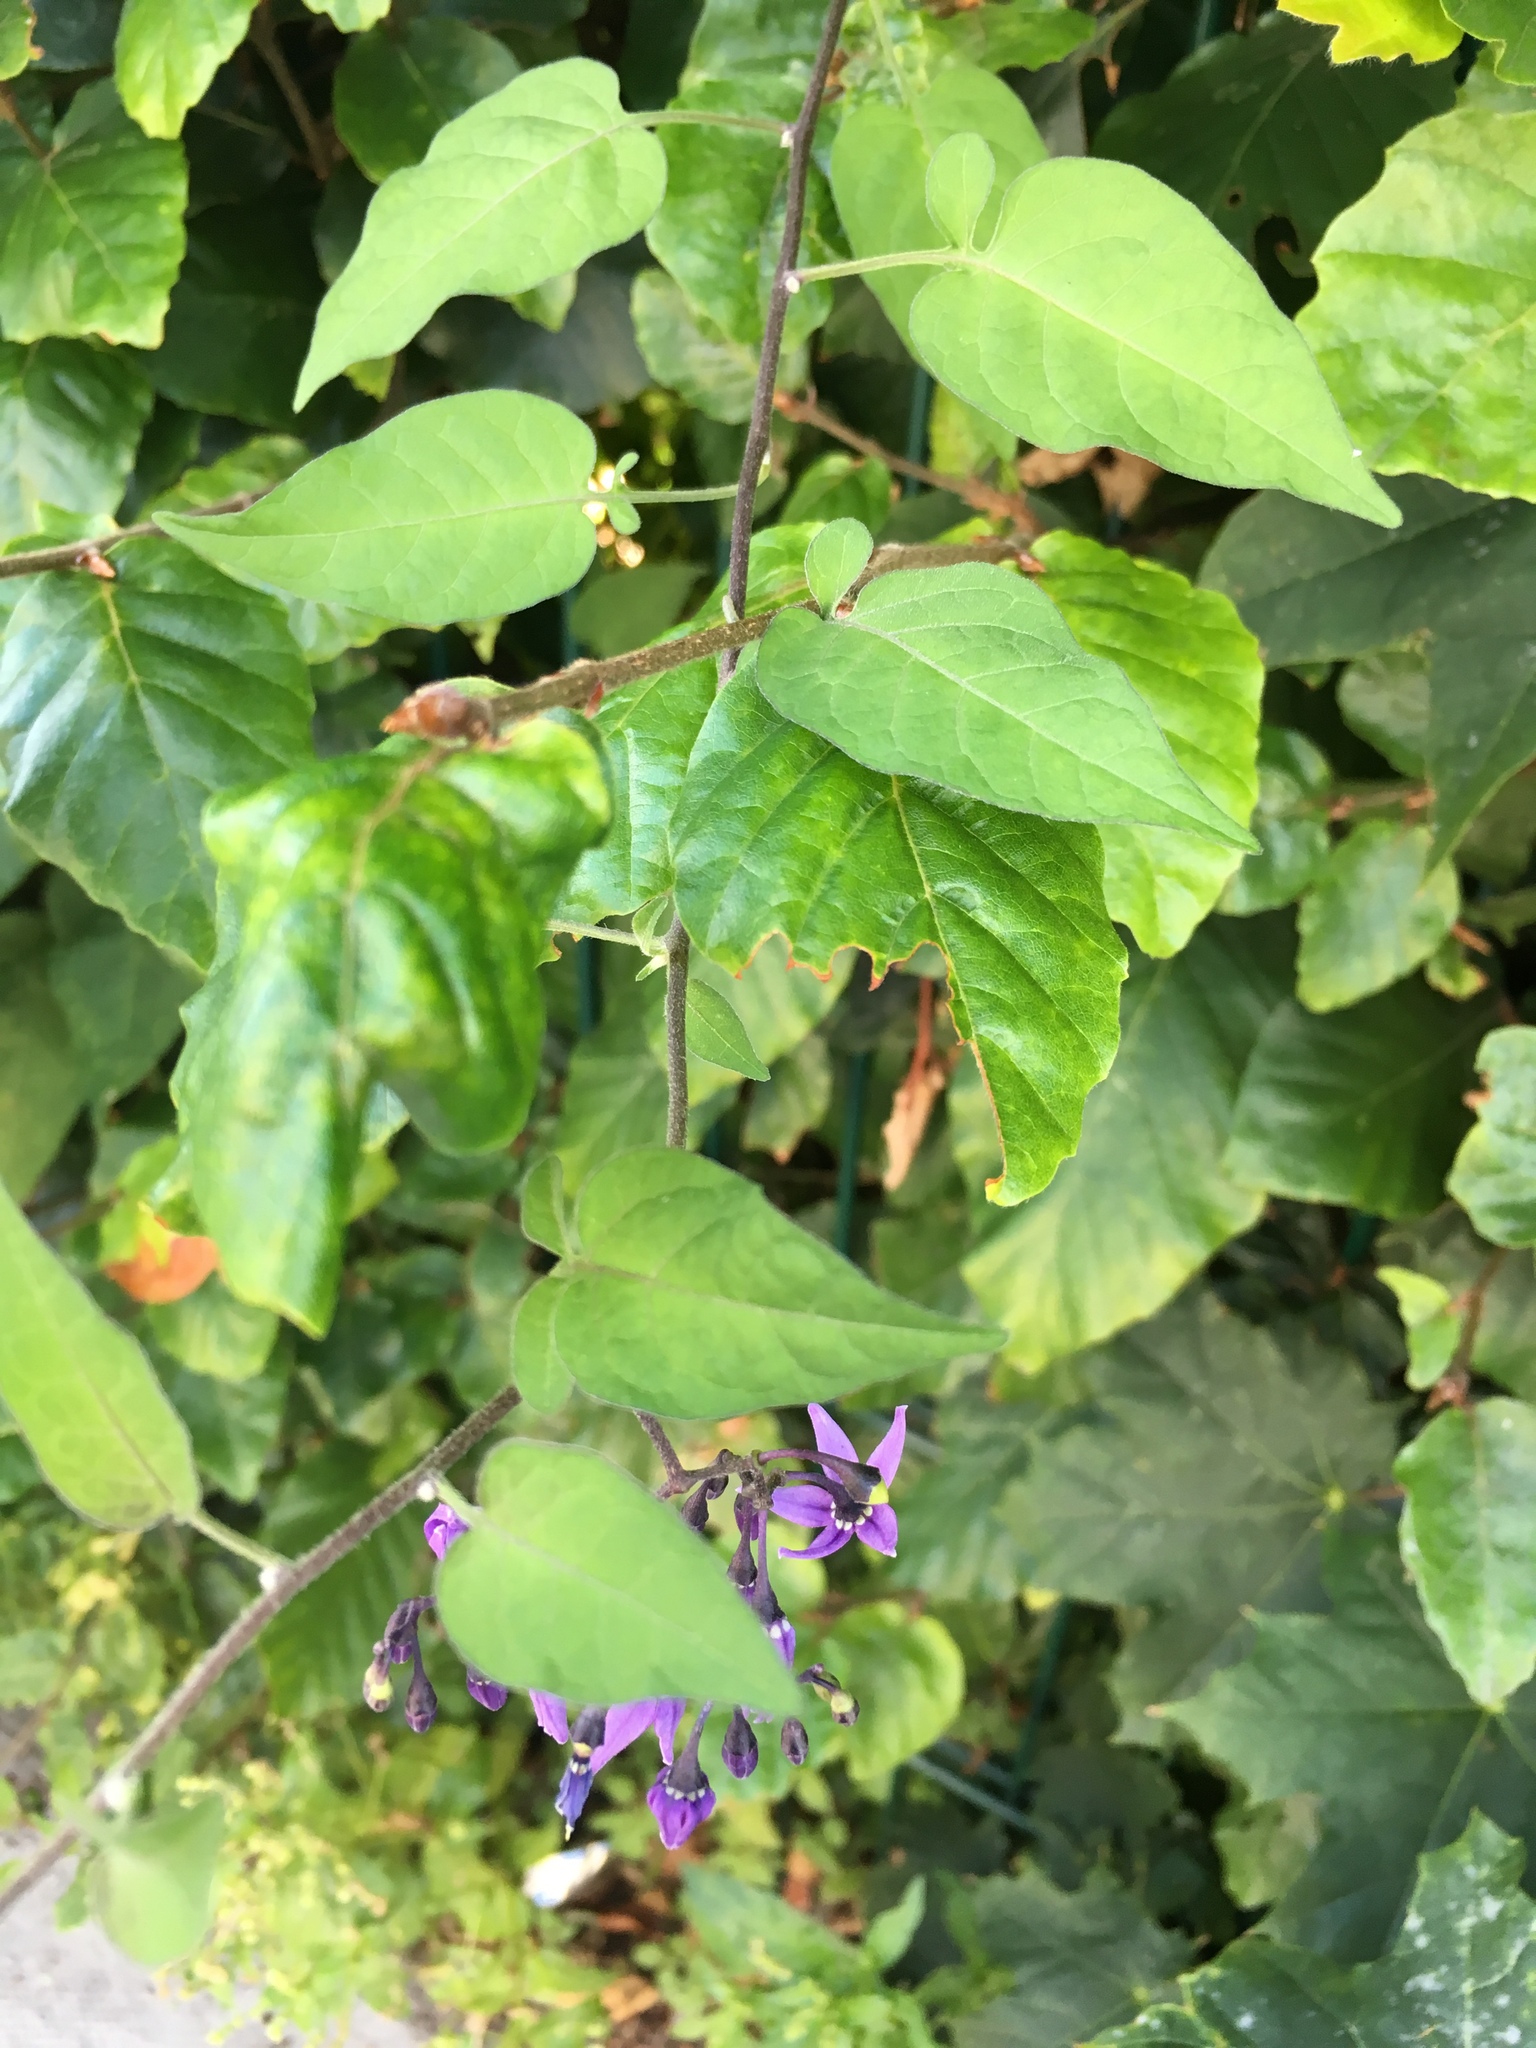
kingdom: Plantae
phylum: Tracheophyta
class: Magnoliopsida
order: Solanales
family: Solanaceae
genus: Solanum
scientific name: Solanum dulcamara
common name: Climbing nightshade
